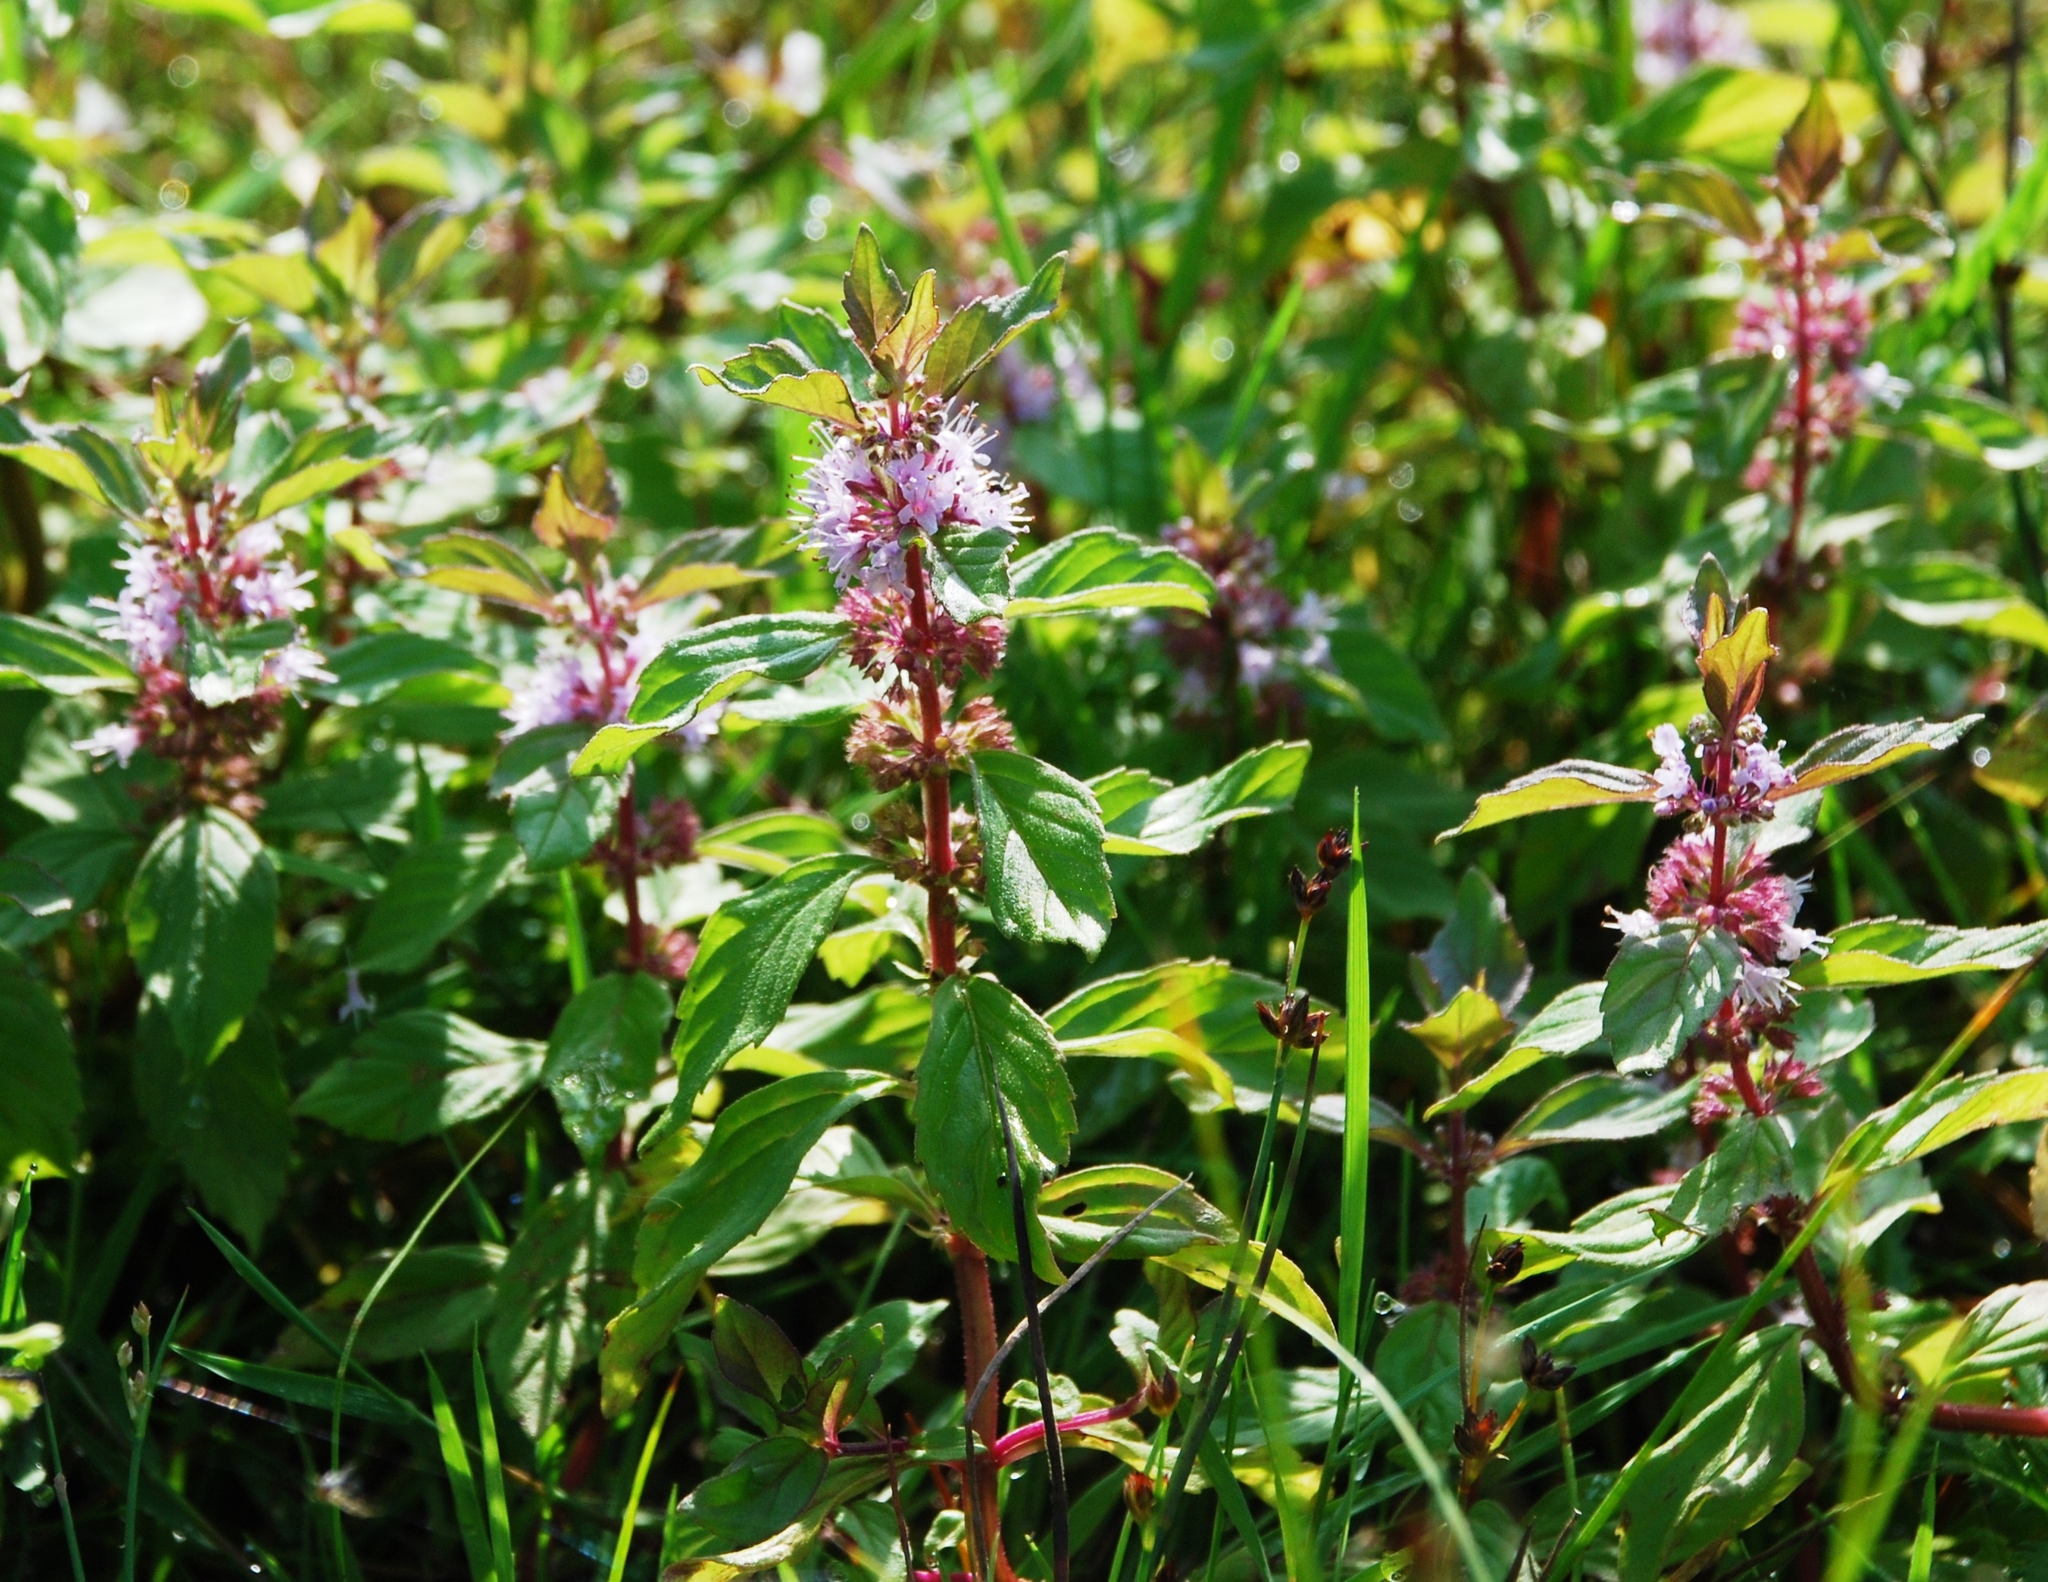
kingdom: Plantae
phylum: Tracheophyta
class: Magnoliopsida
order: Lamiales
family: Lamiaceae
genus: Mentha
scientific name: Mentha arvensis
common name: Corn mint
